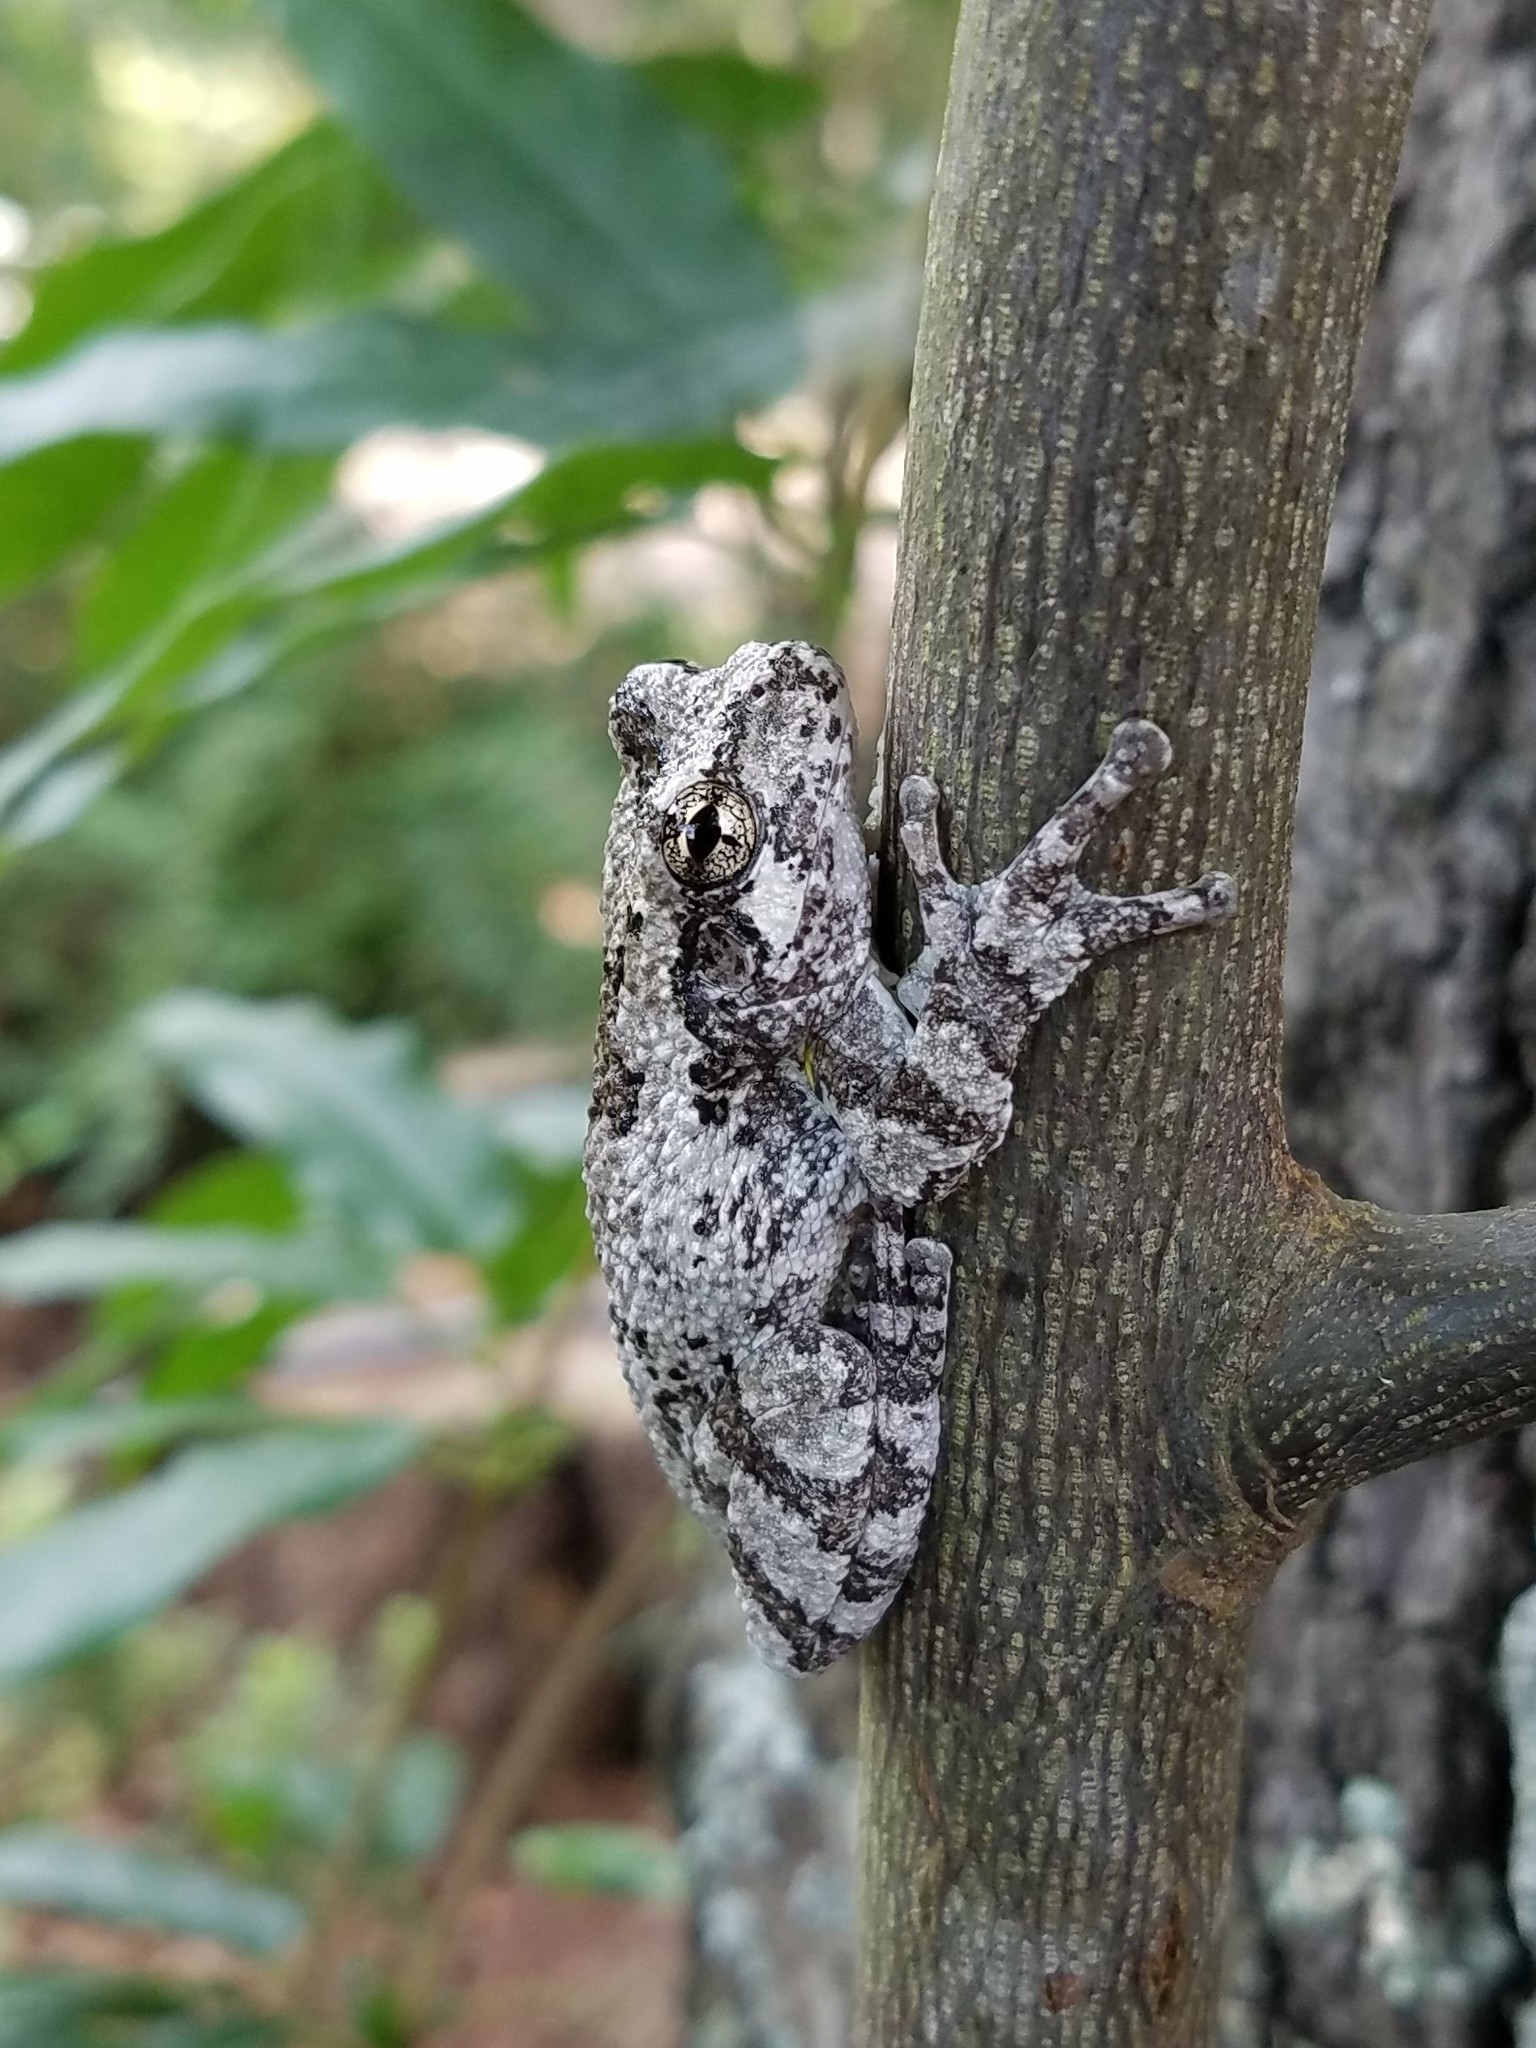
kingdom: Animalia
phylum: Chordata
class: Amphibia
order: Anura
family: Hylidae
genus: Dryophytes
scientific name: Dryophytes chrysoscelis
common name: Cope's gray treefrog
